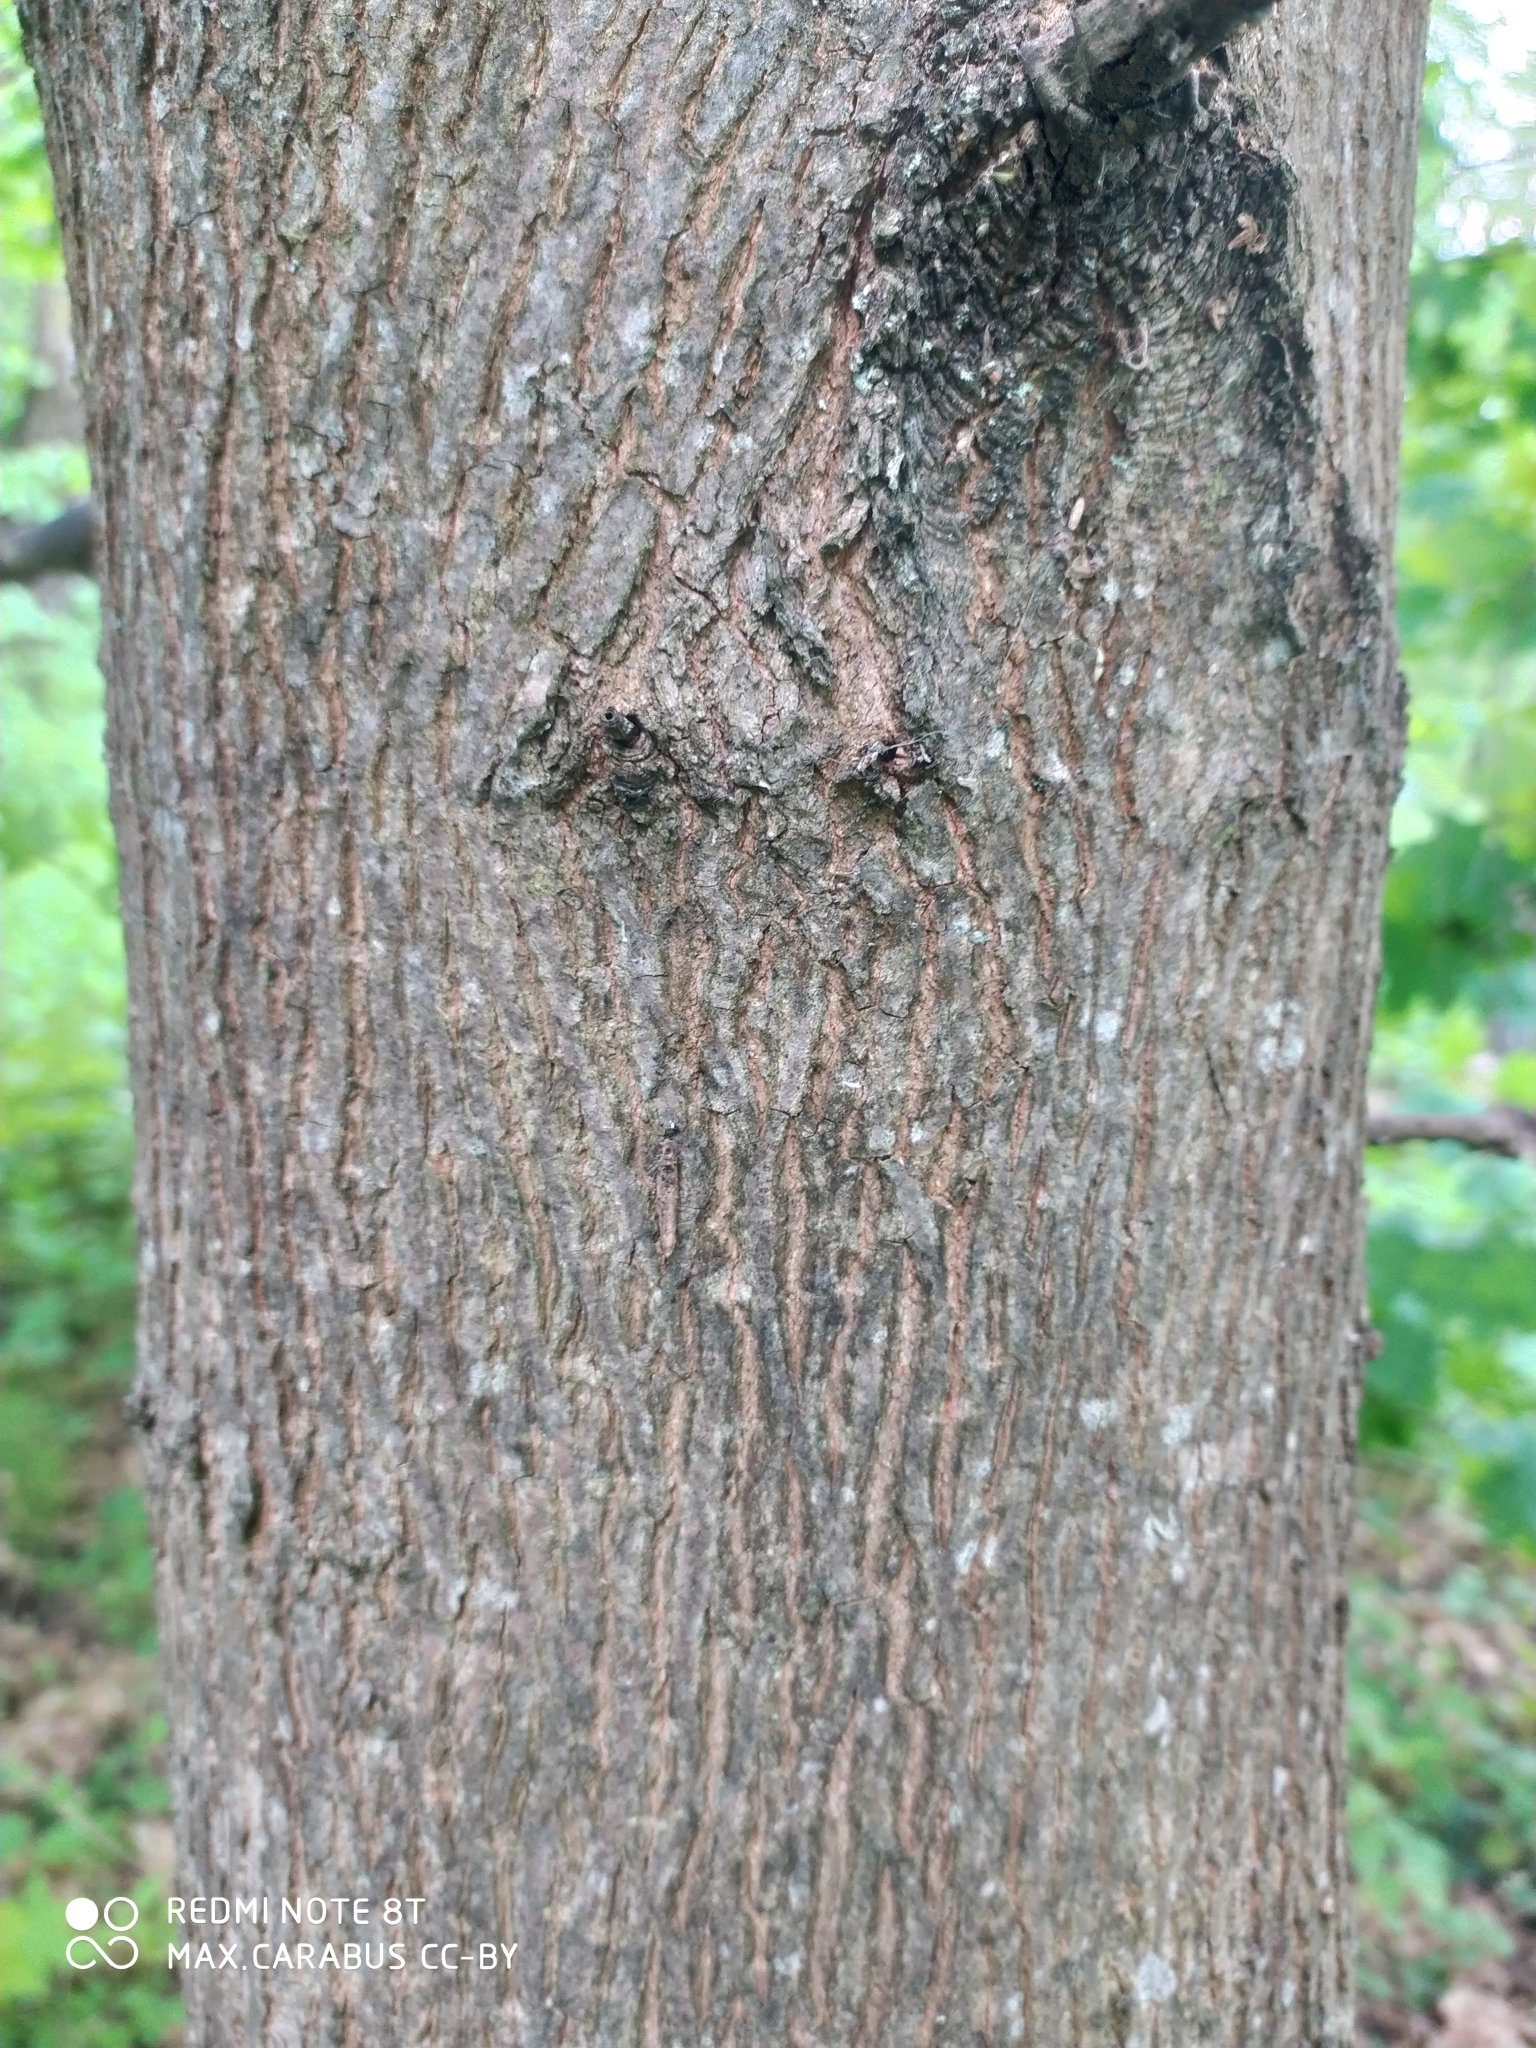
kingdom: Plantae
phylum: Tracheophyta
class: Magnoliopsida
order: Sapindales
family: Sapindaceae
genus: Acer
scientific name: Acer platanoides
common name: Norway maple
